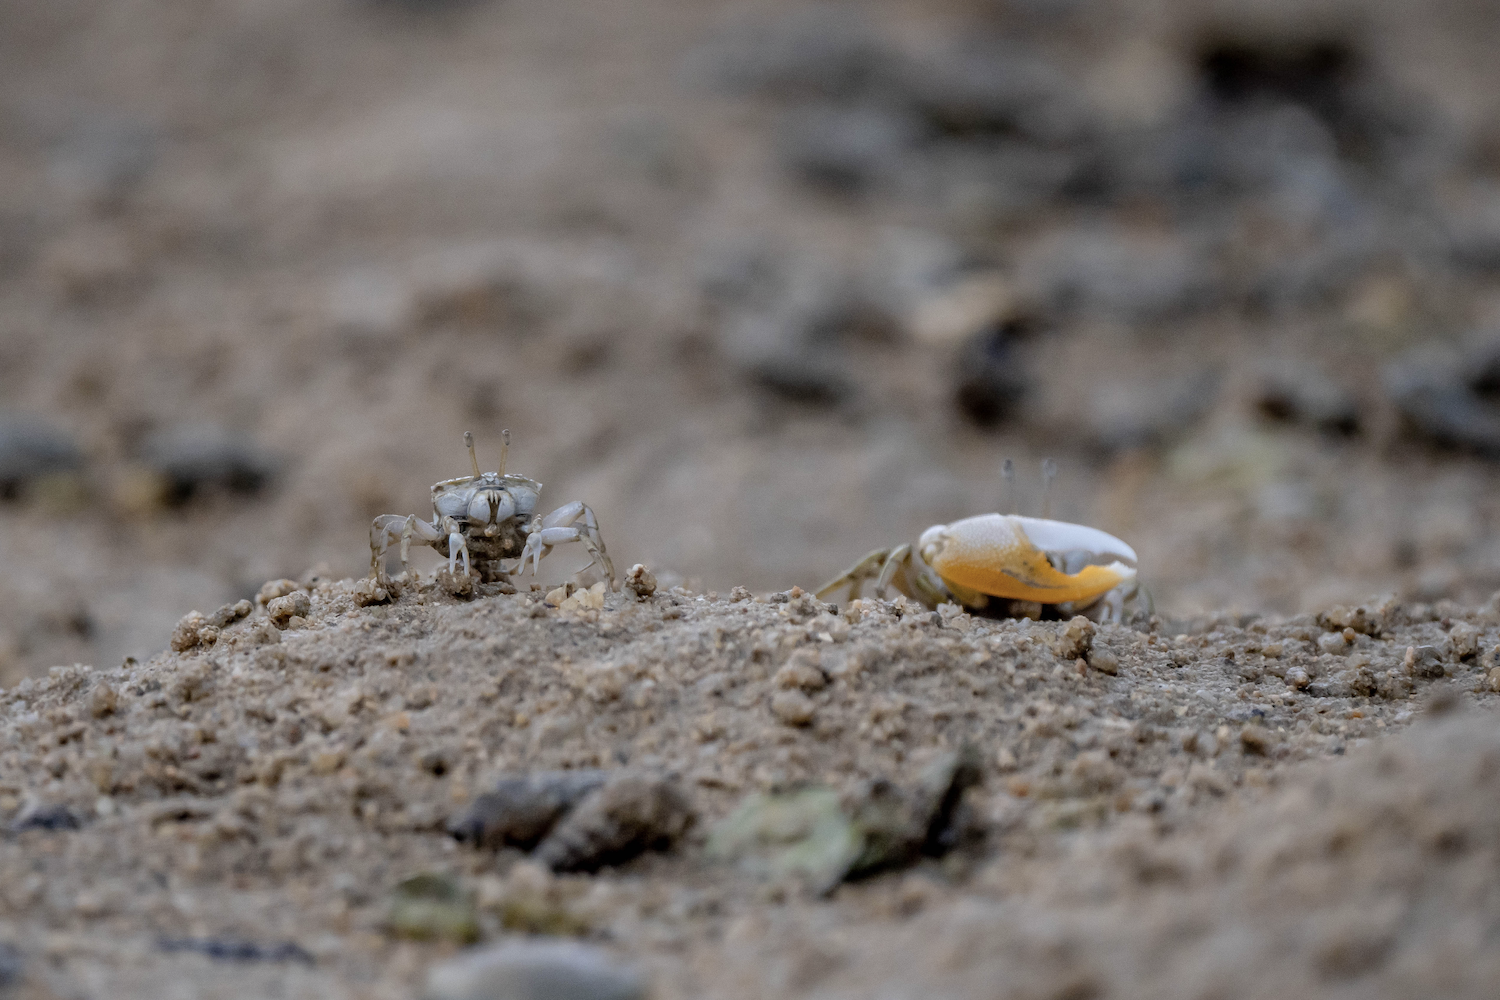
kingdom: Animalia
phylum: Arthropoda
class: Malacostraca
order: Decapoda
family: Ocypodidae
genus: Gelasimus
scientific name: Gelasimus borealis
